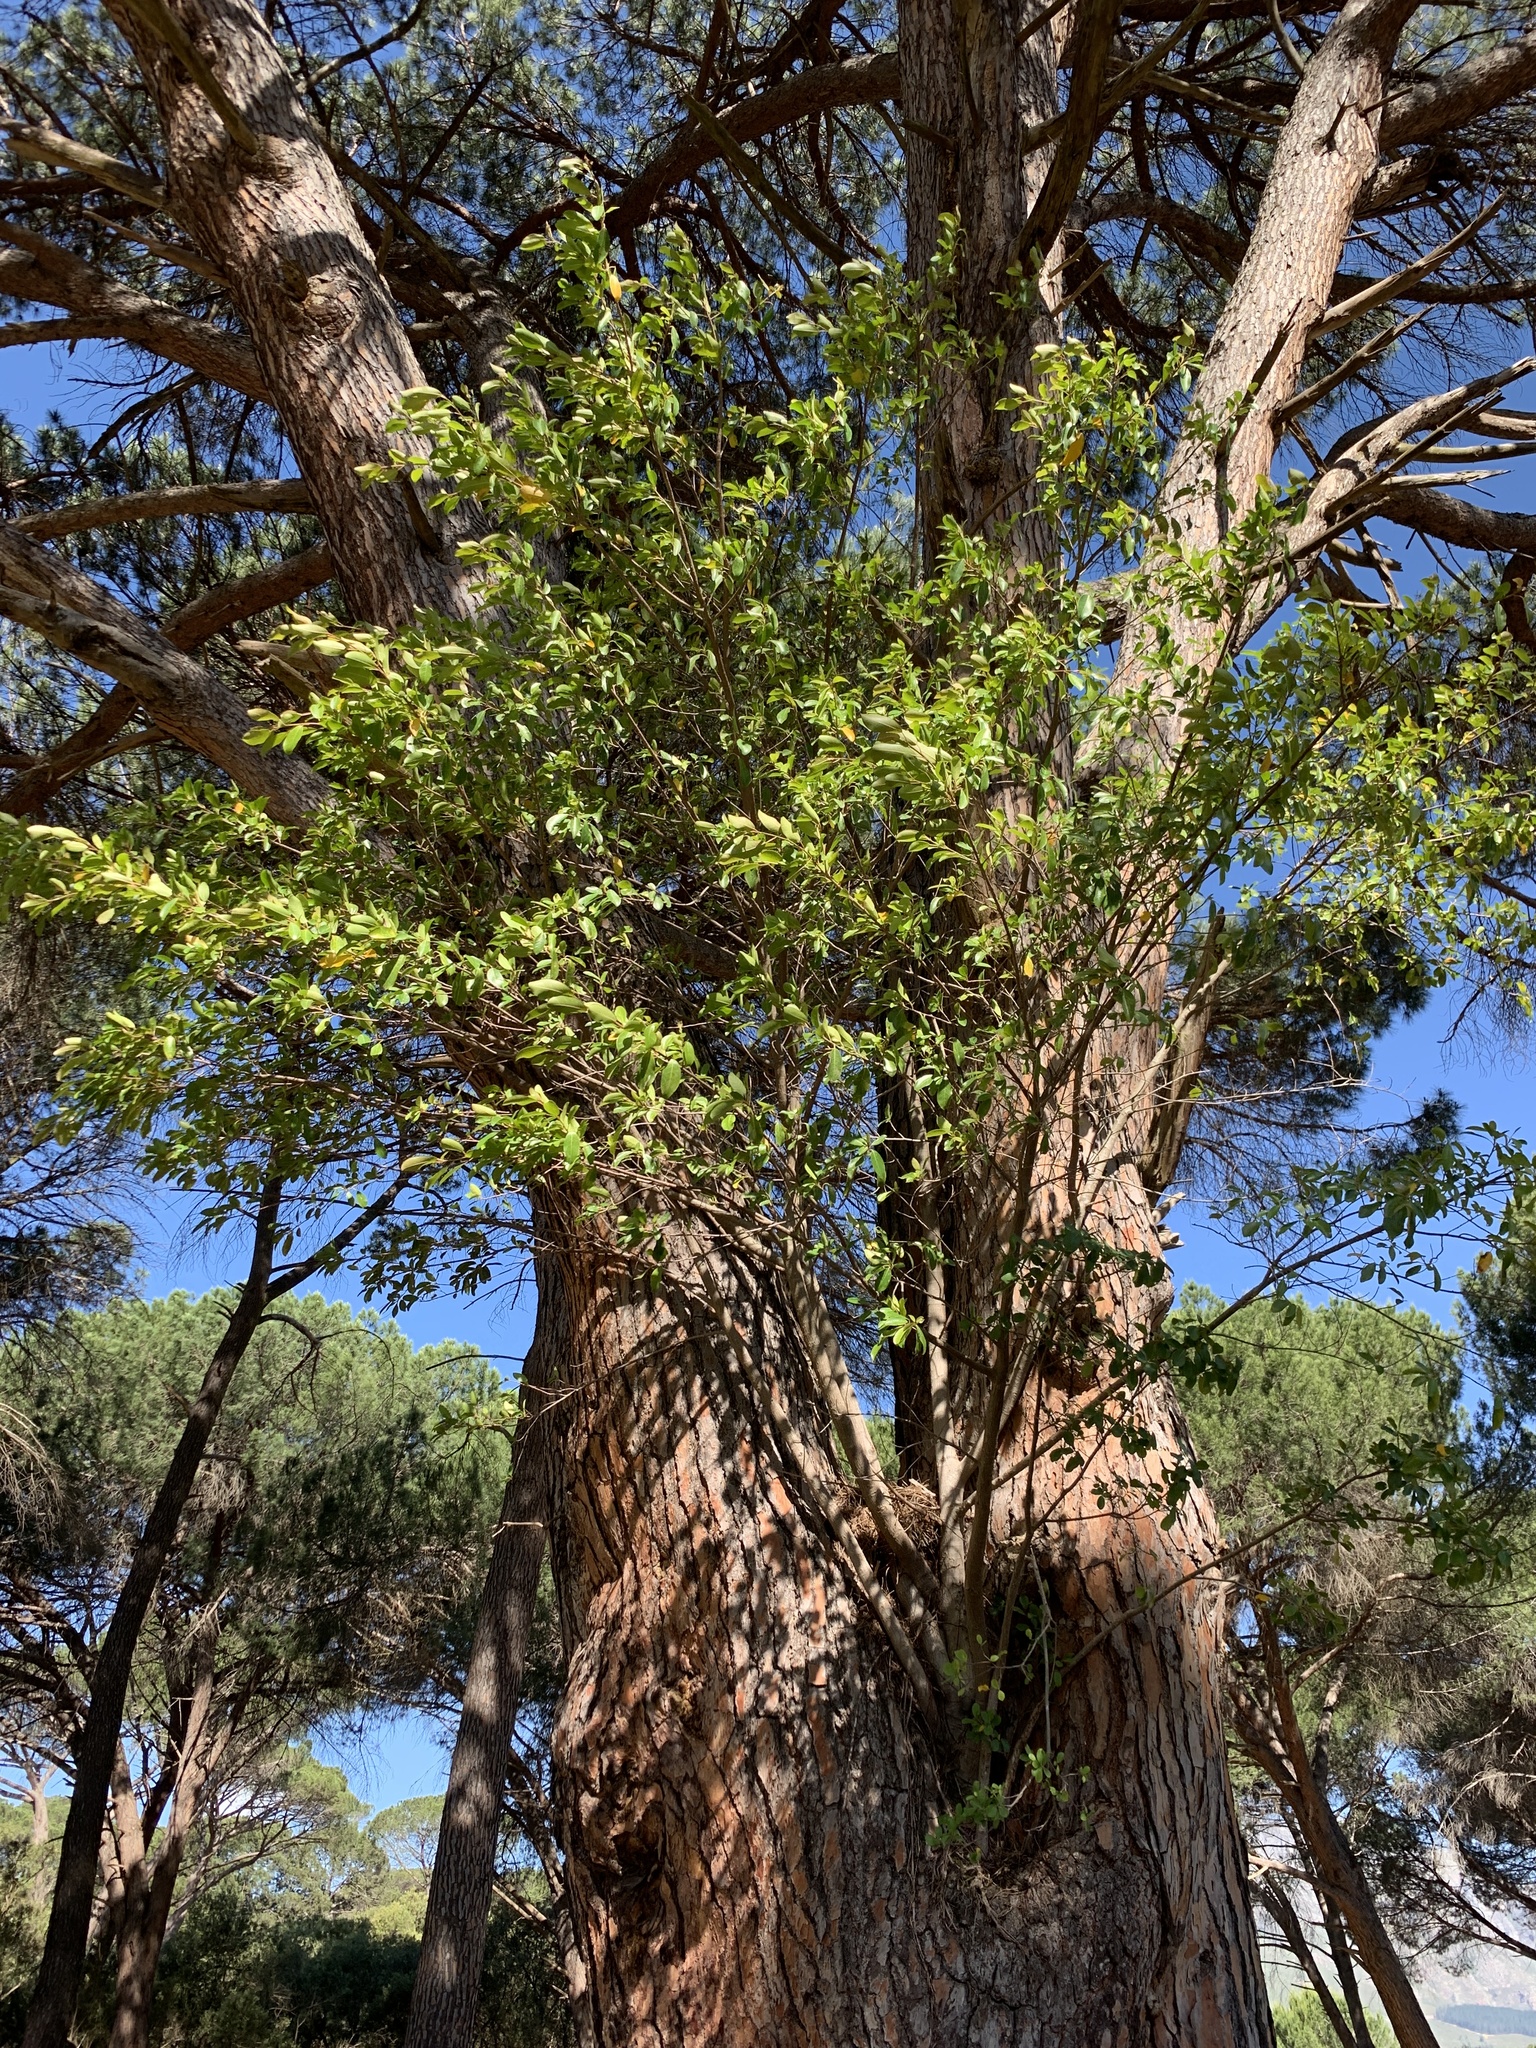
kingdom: Plantae
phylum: Tracheophyta
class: Magnoliopsida
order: Rosales
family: Moraceae
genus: Ficus
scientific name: Ficus thonningii
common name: Fig
